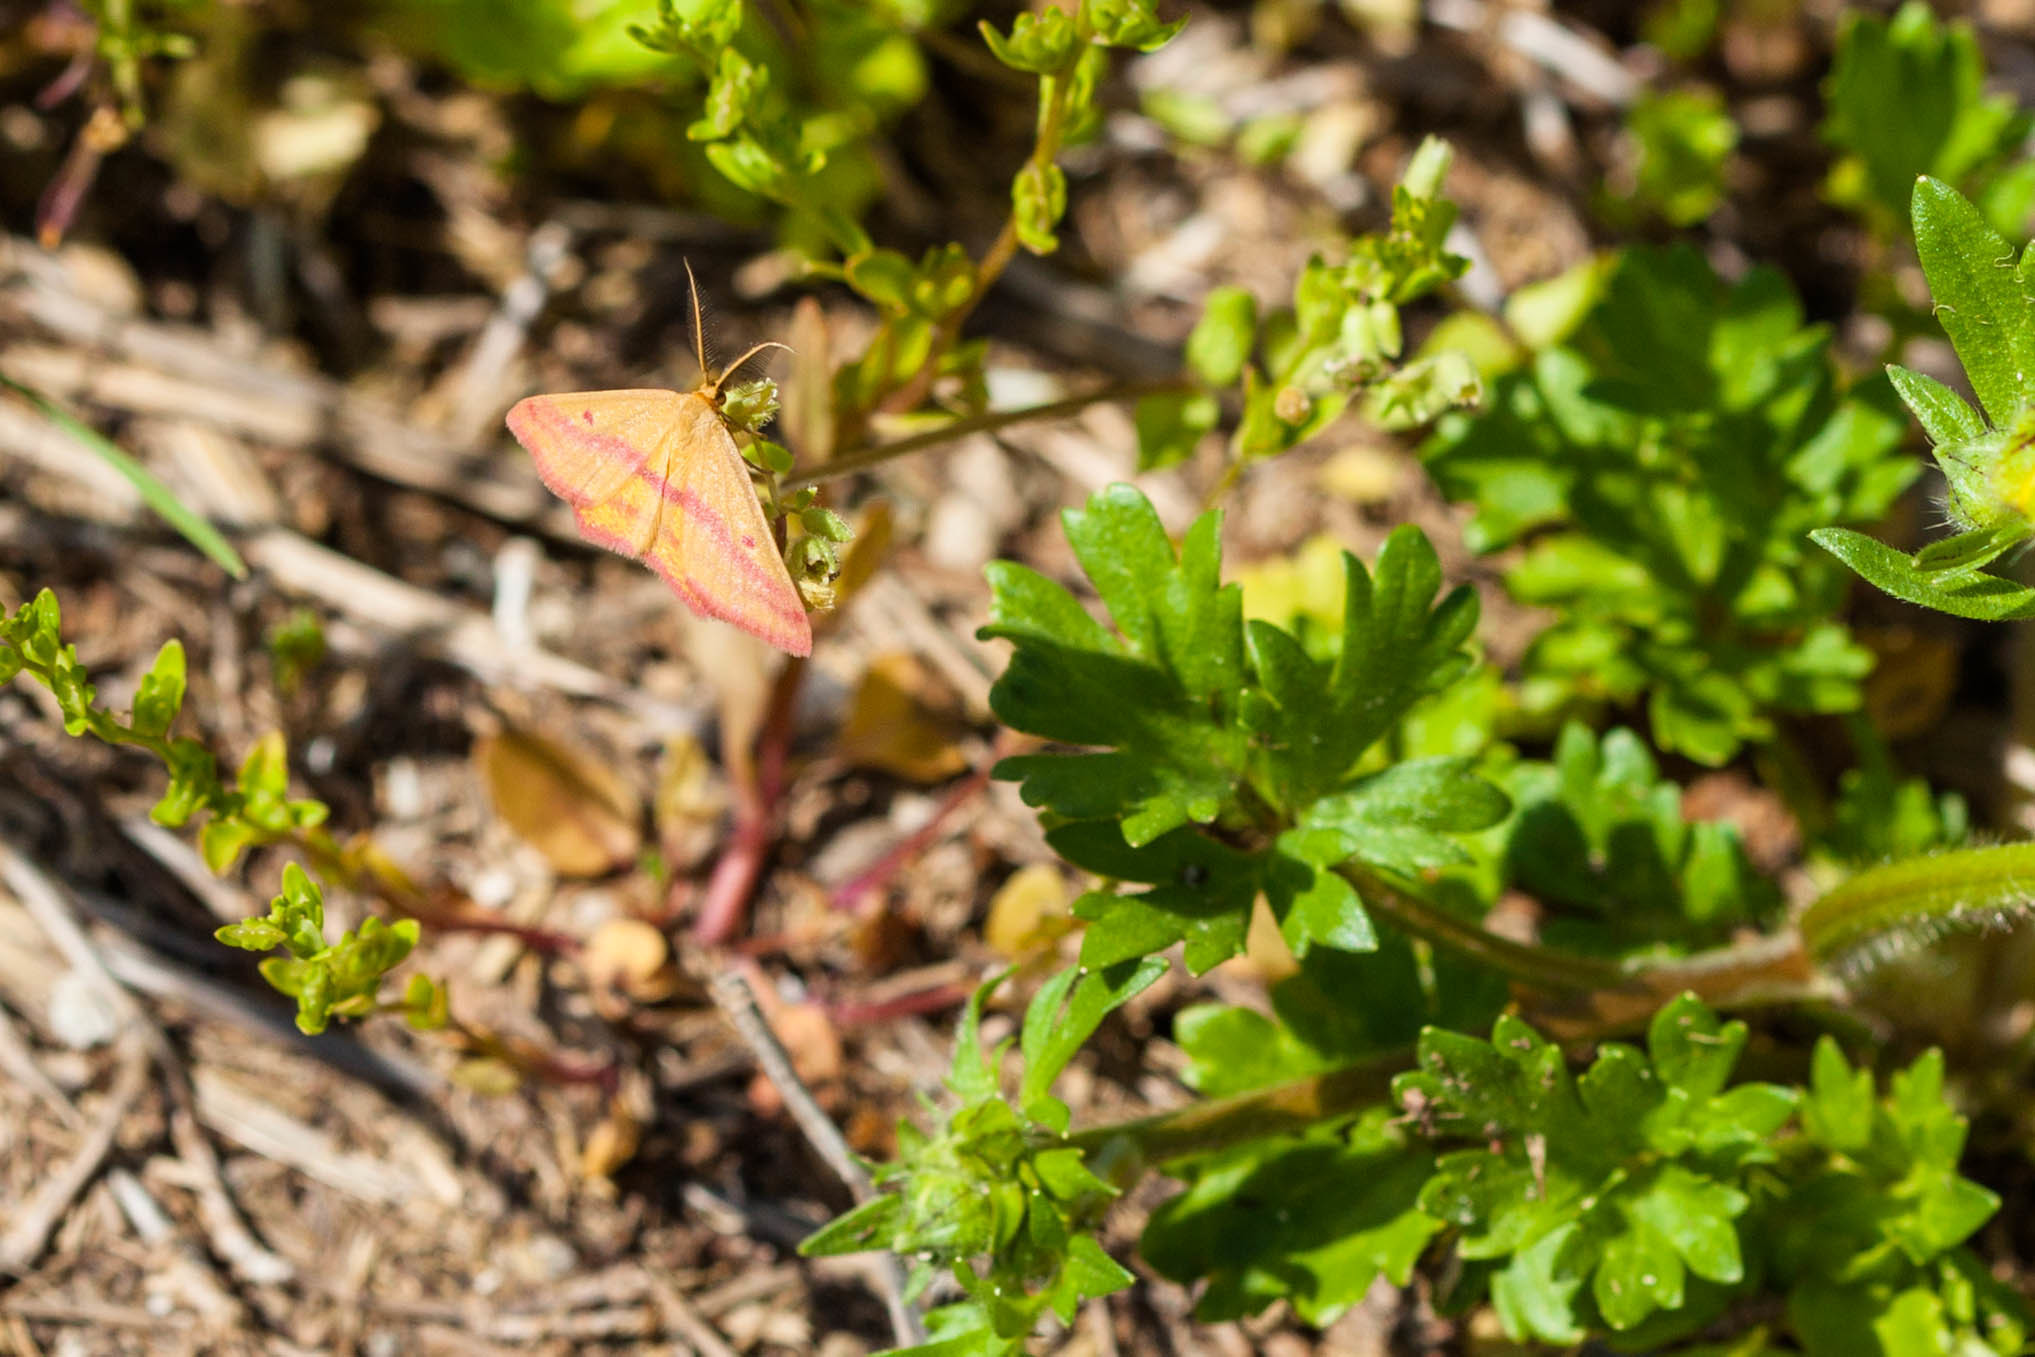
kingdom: Animalia
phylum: Arthropoda
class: Insecta
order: Lepidoptera
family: Geometridae
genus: Haematopis
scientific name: Haematopis grataria
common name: Chickweed geometer
